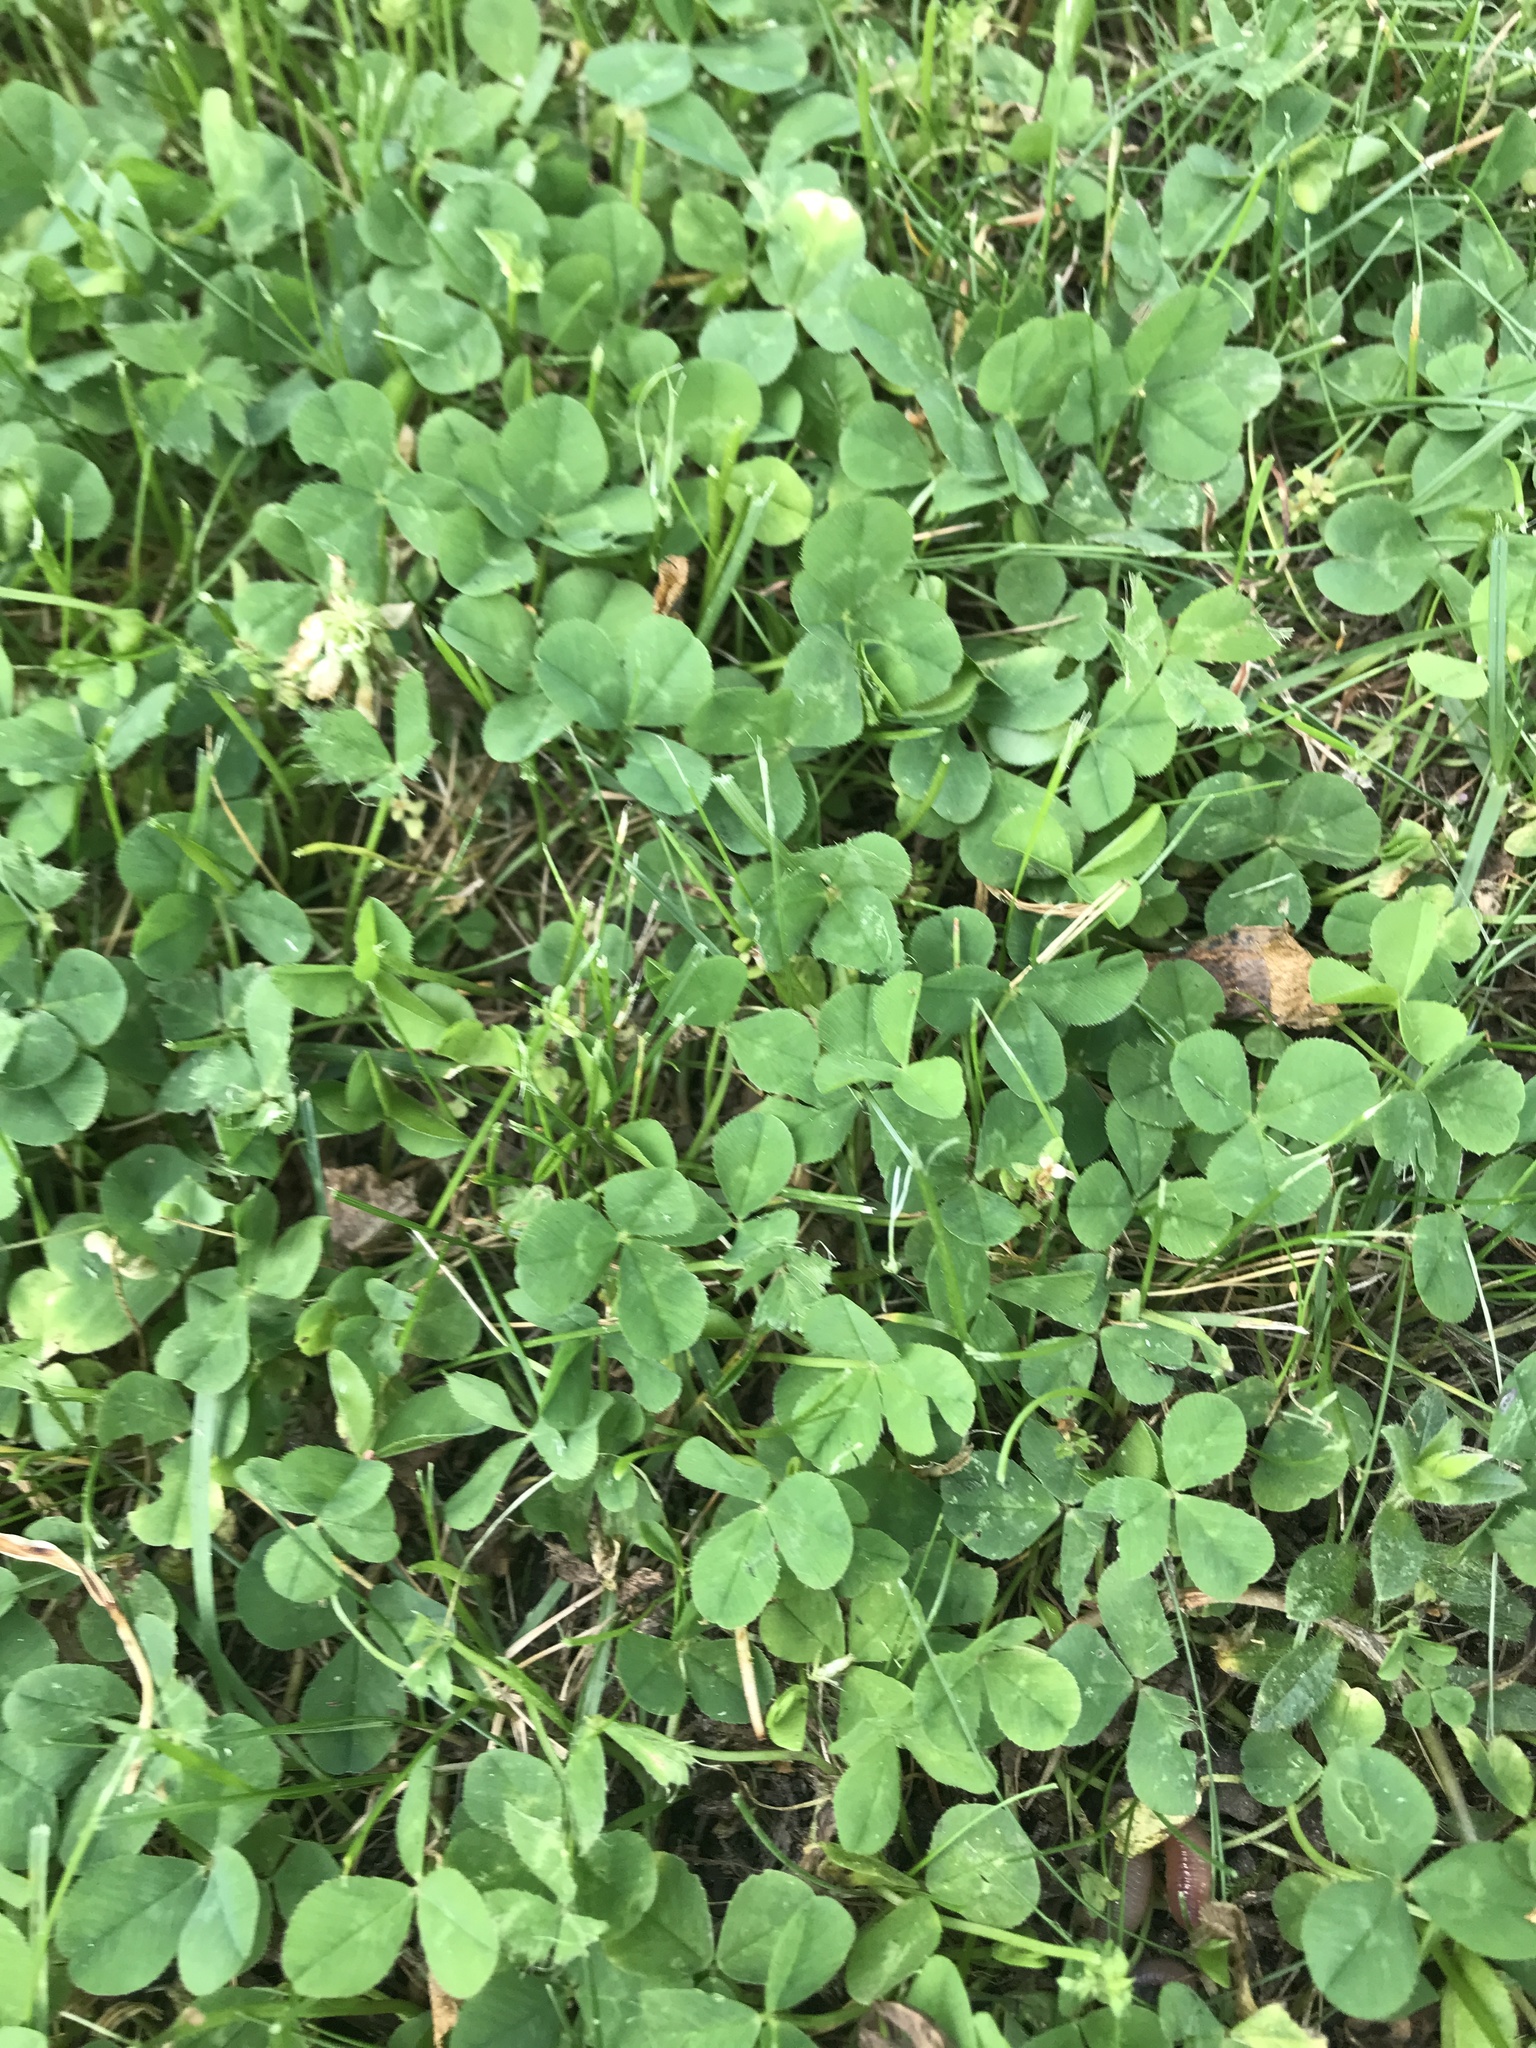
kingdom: Plantae
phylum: Tracheophyta
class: Magnoliopsida
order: Fabales
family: Fabaceae
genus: Trifolium
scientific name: Trifolium repens
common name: White clover
